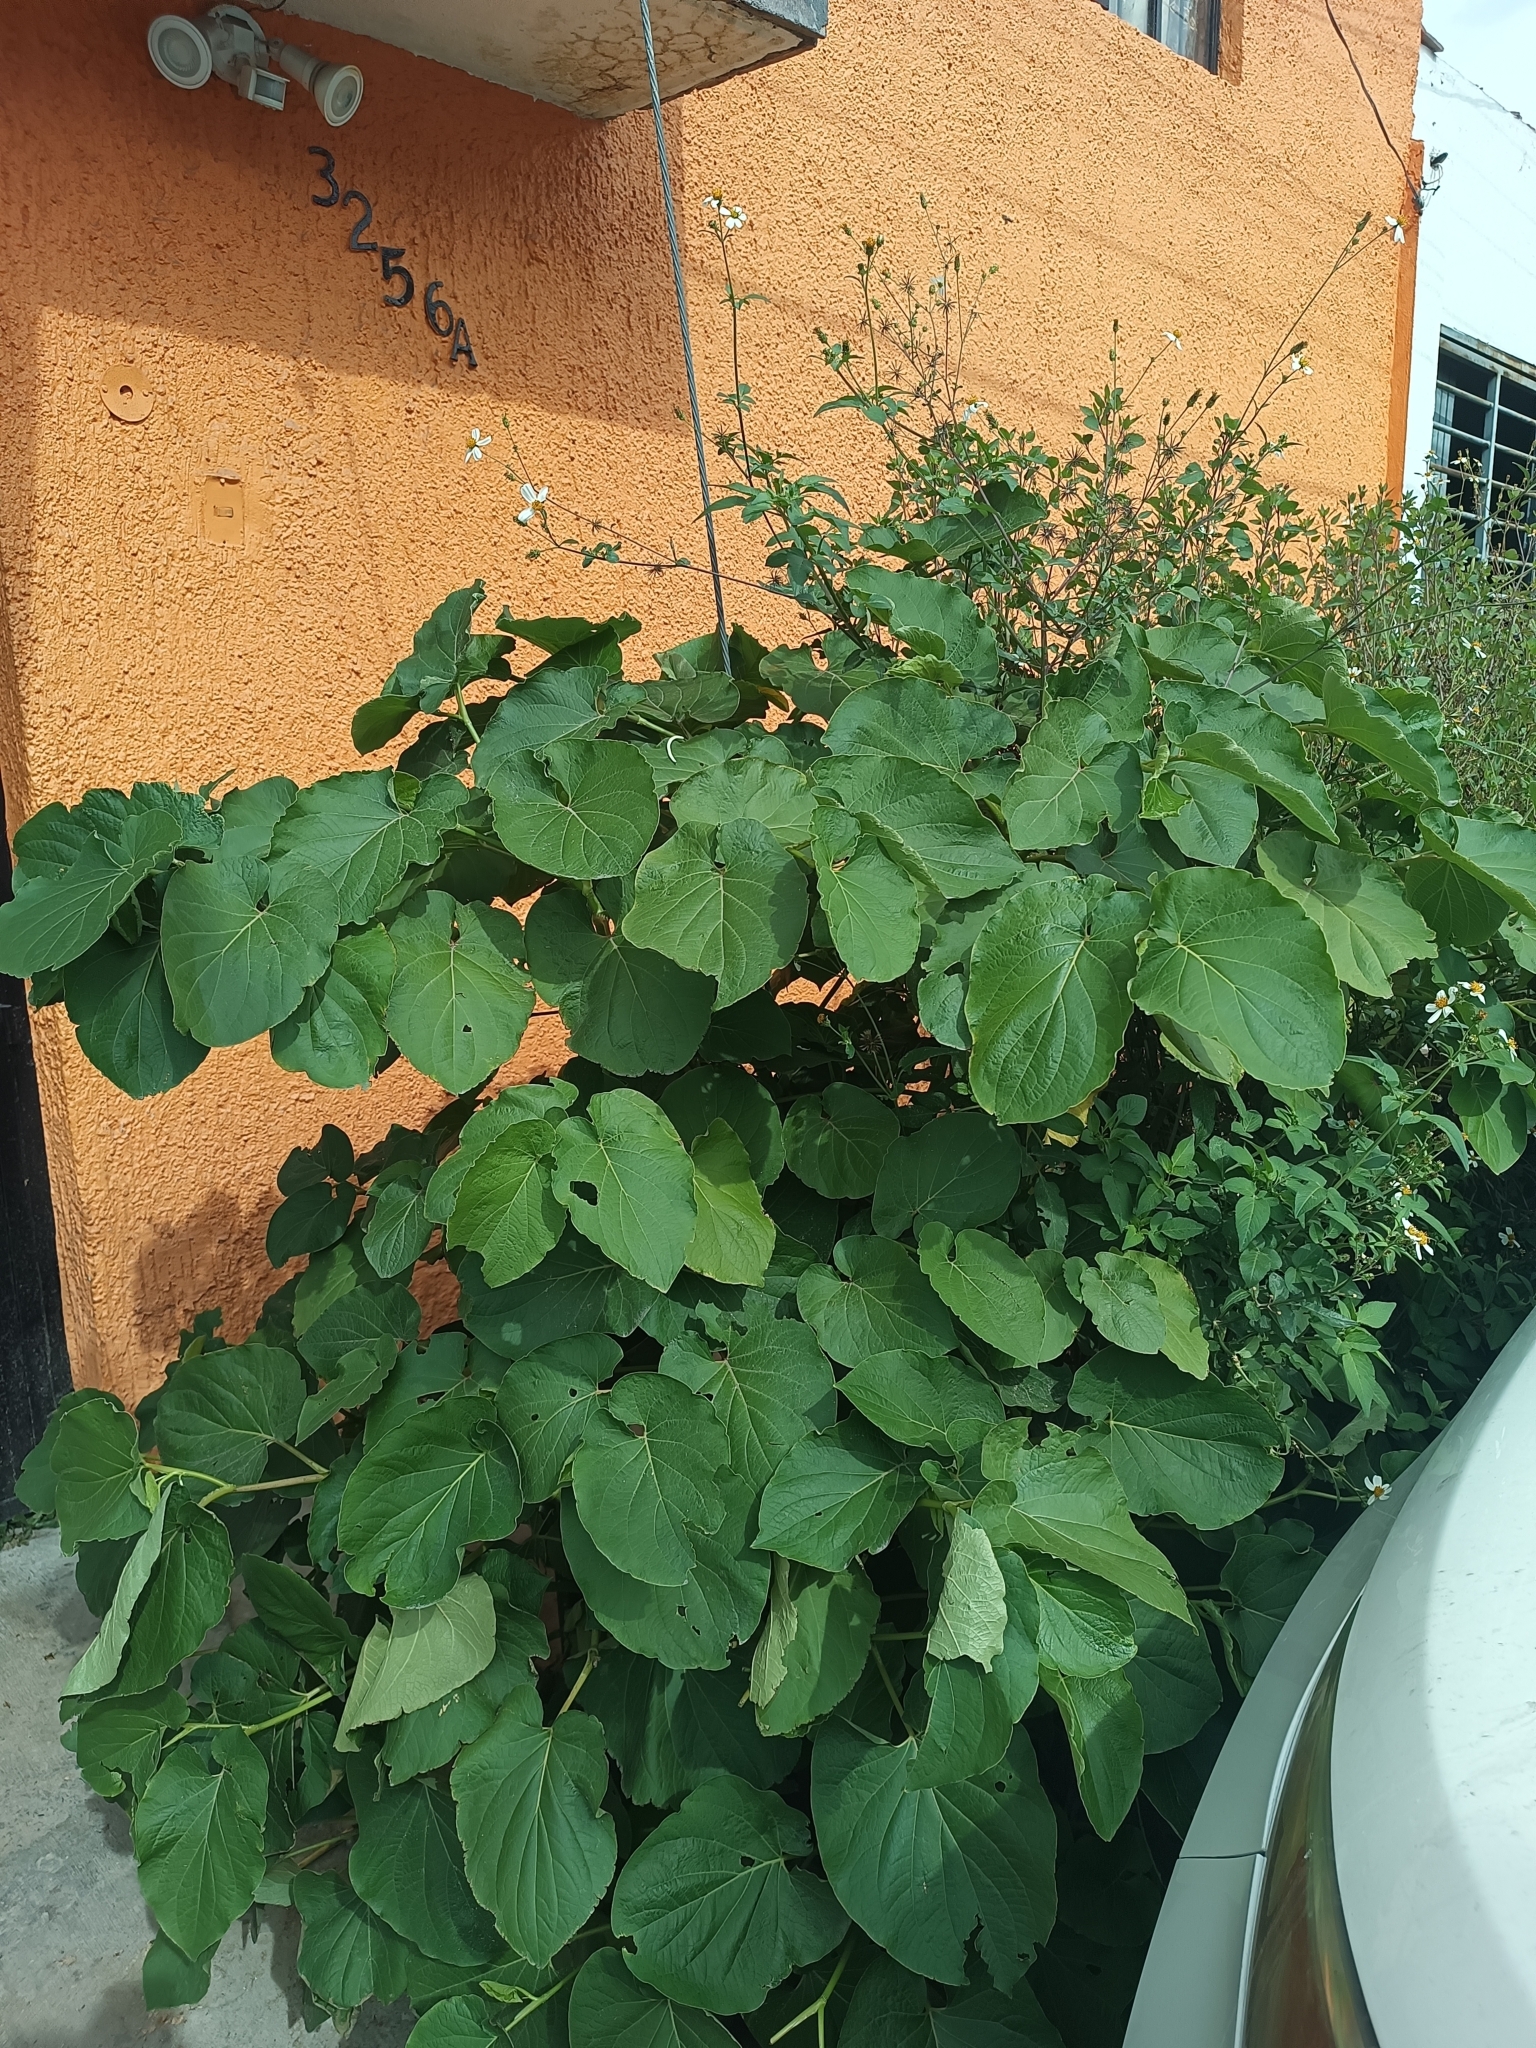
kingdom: Plantae
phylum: Tracheophyta
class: Magnoliopsida
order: Piperales
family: Piperaceae
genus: Piper
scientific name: Piper auritum
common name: Vera cruz pepper
